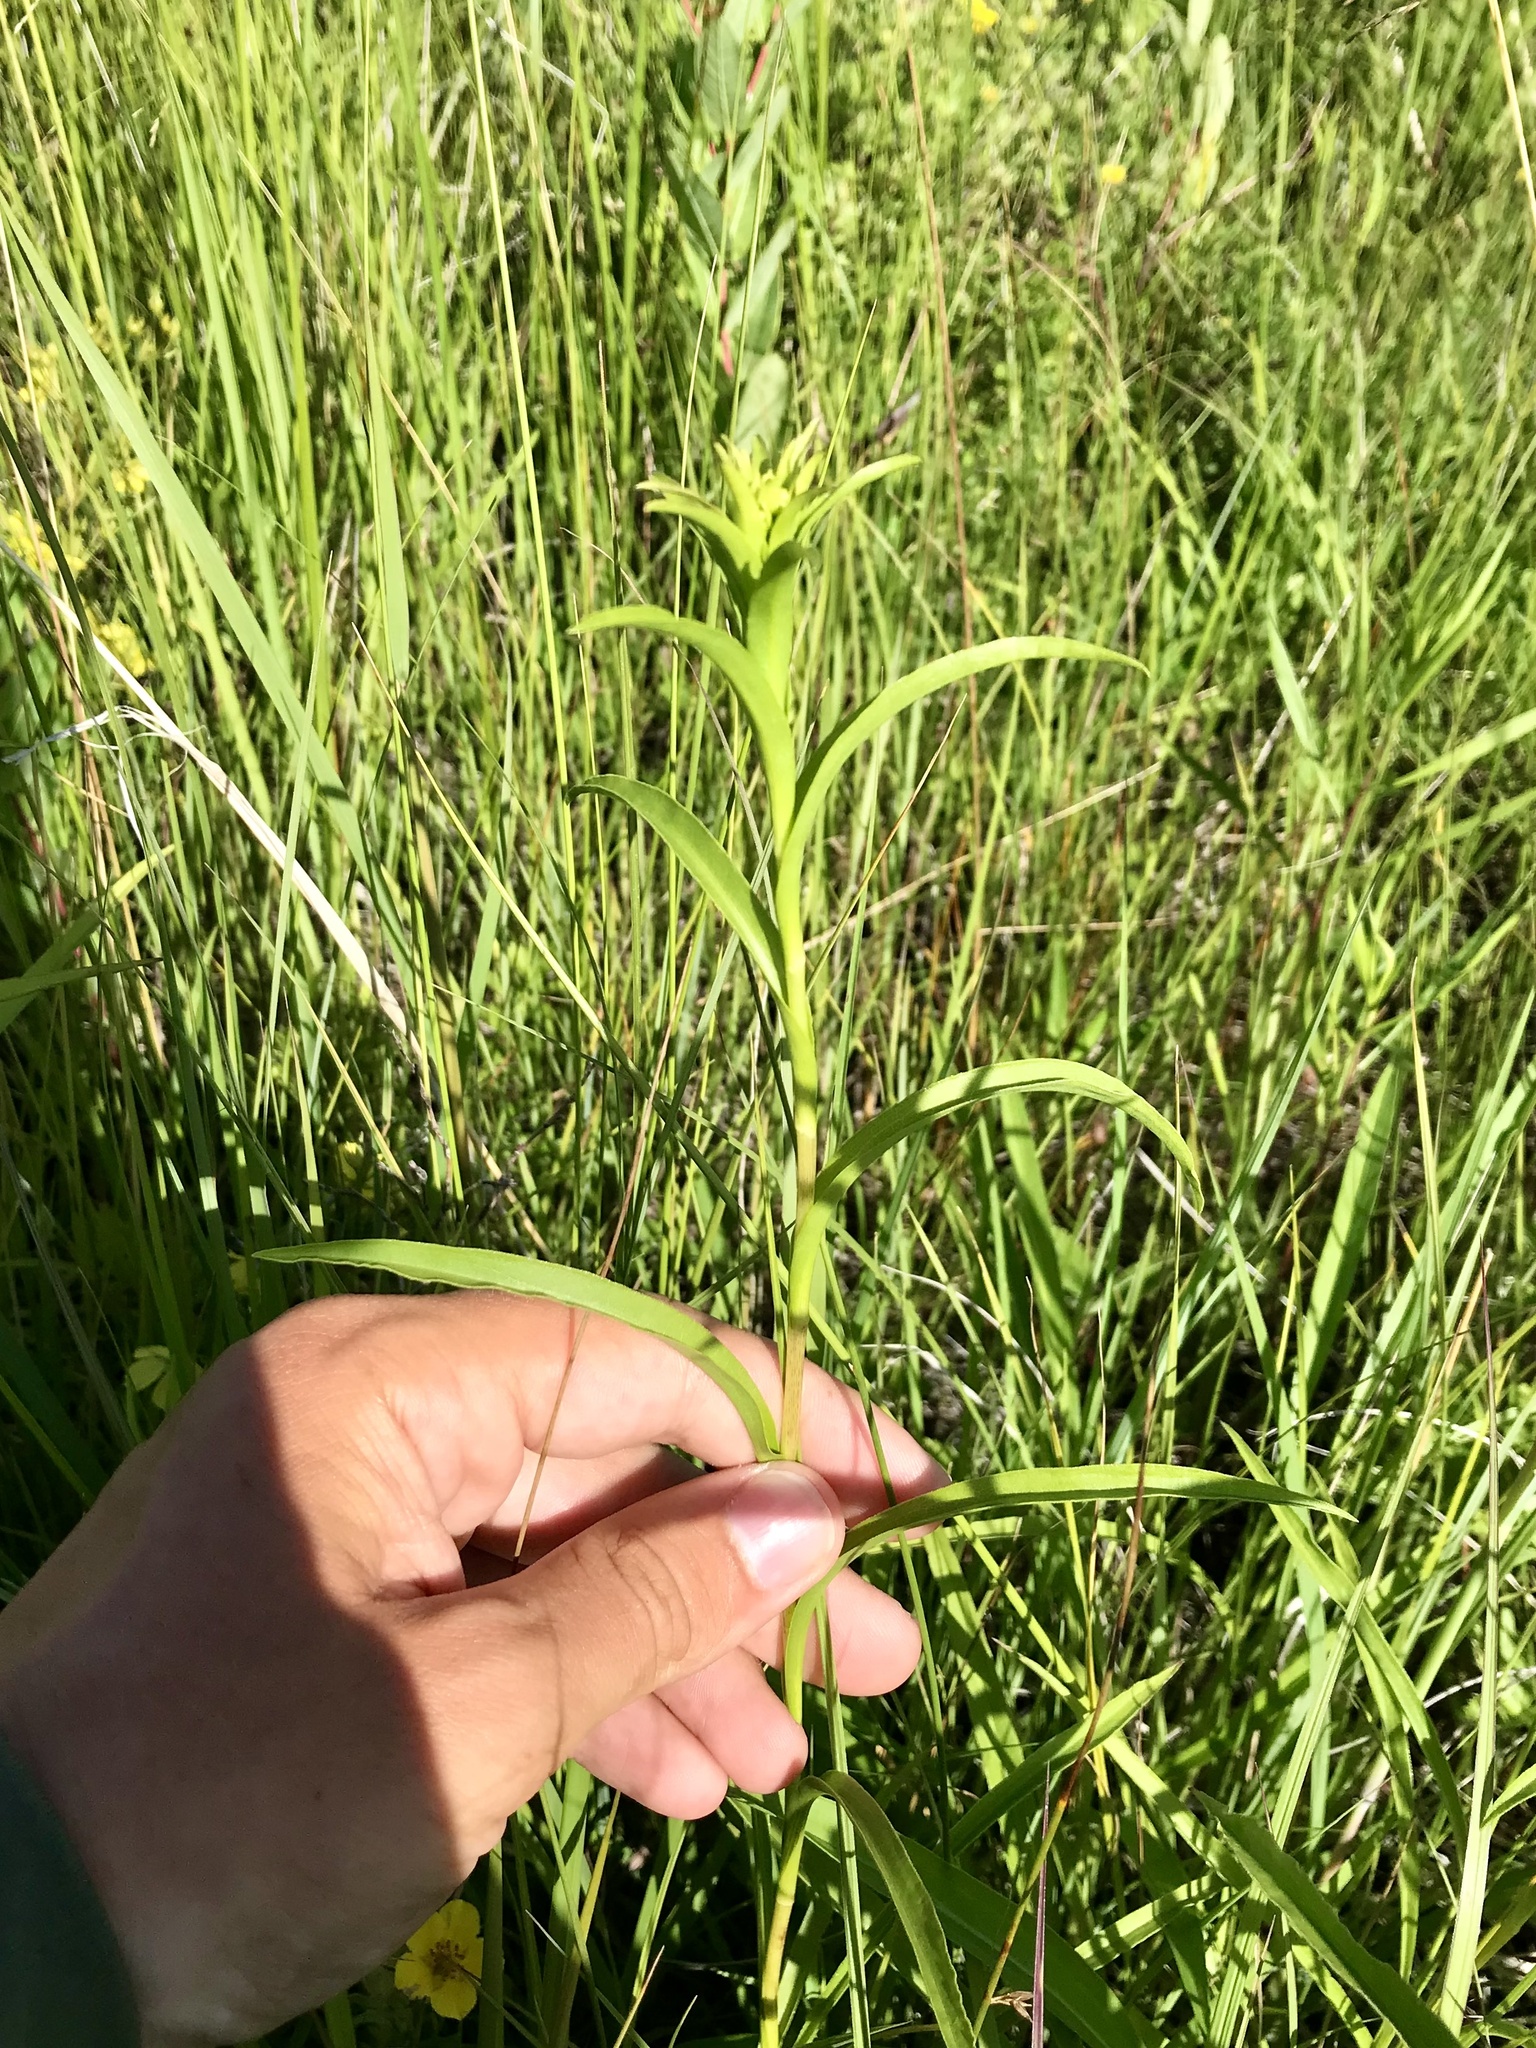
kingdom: Plantae
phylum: Tracheophyta
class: Magnoliopsida
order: Asterales
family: Asteraceae
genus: Solidago
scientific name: Solidago riddellii
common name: Riddell's goldenrod
